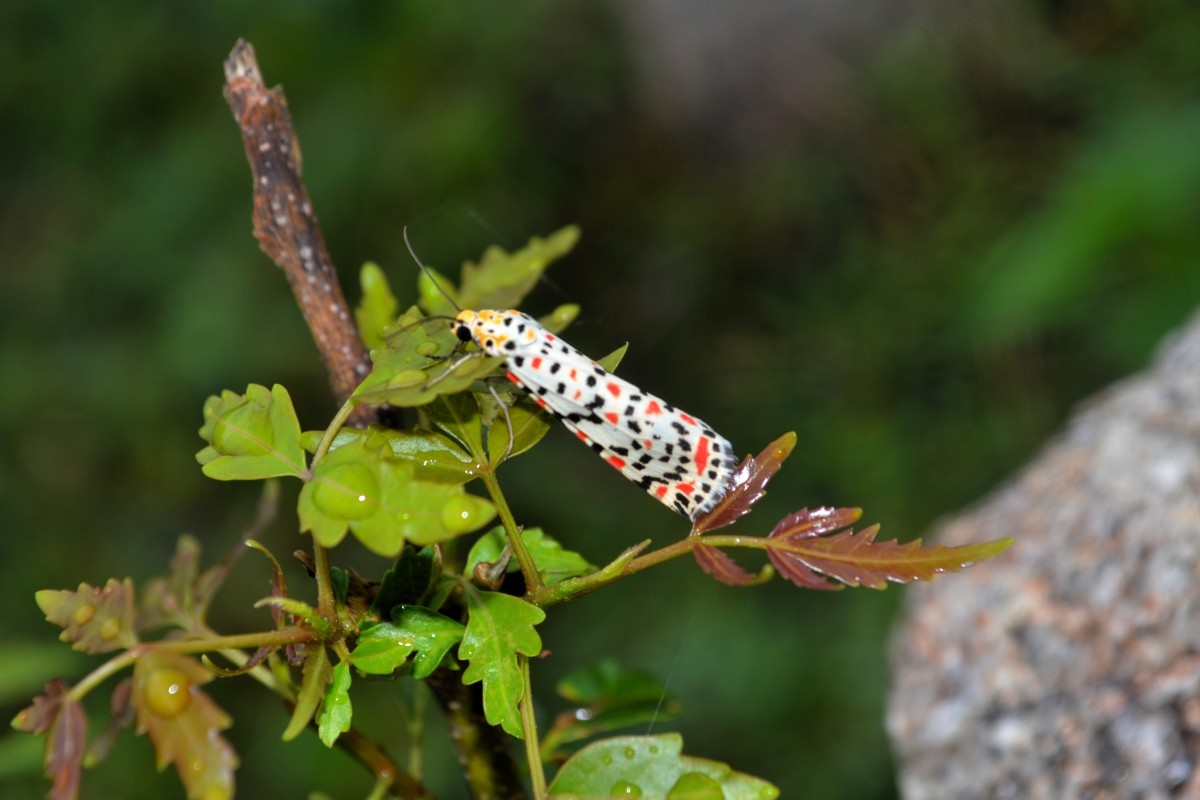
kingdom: Animalia
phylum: Arthropoda
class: Insecta
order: Lepidoptera
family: Erebidae
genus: Utetheisa
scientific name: Utetheisa pulchelloides
